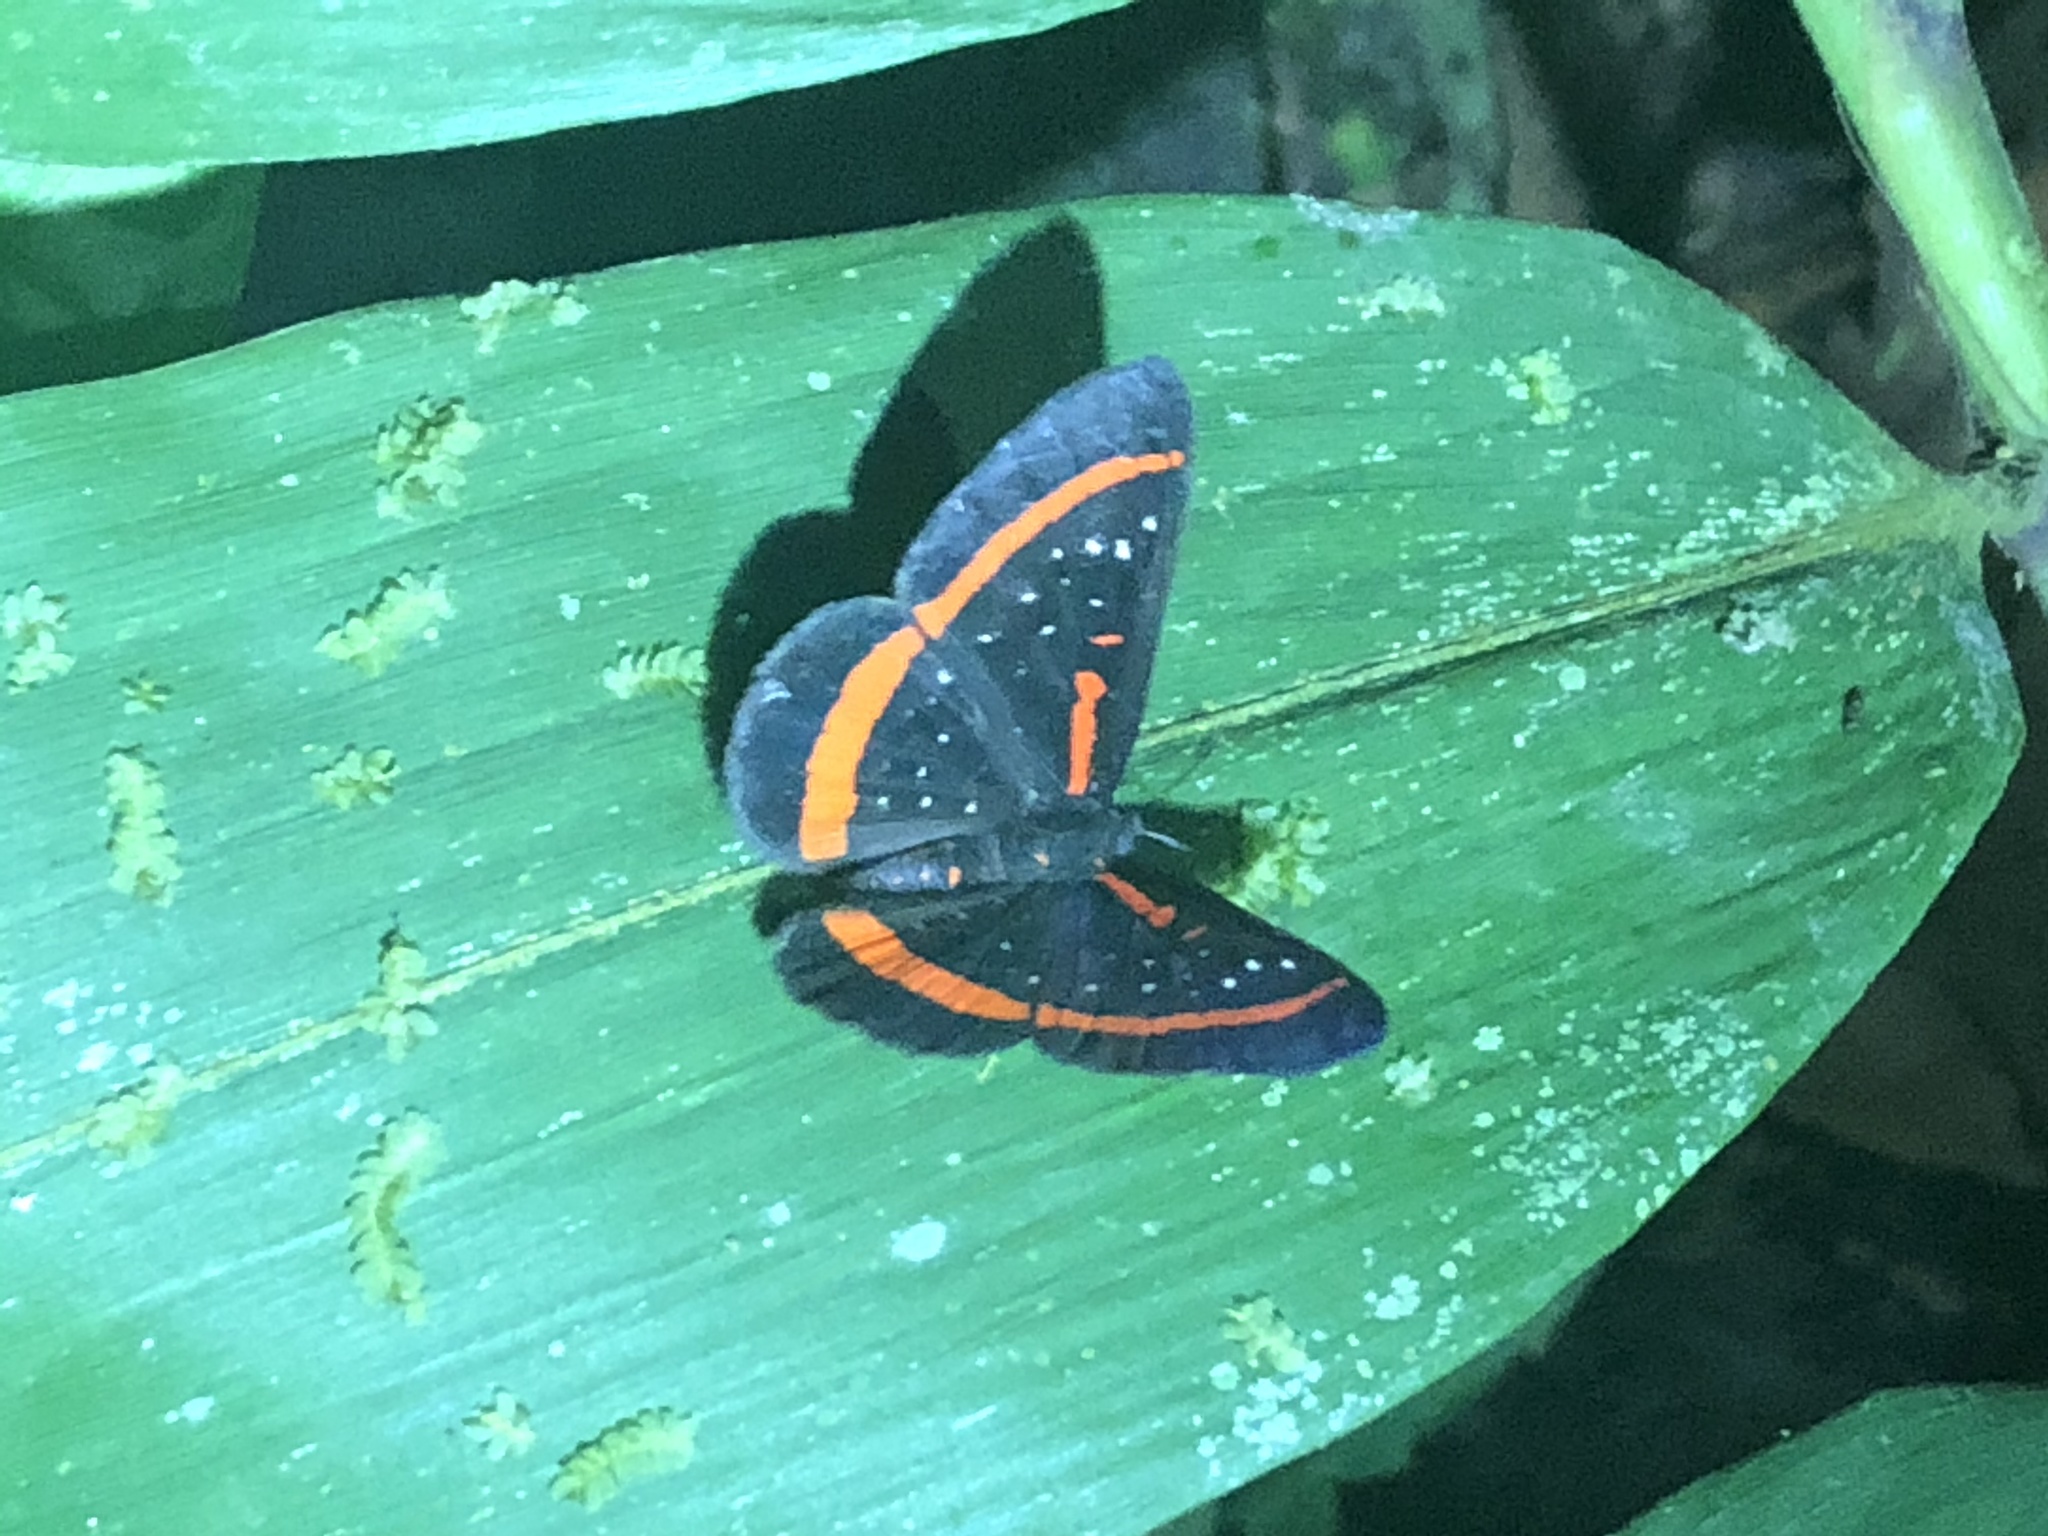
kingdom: Animalia
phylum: Arthropoda
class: Insecta
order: Lepidoptera
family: Riodinidae
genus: Amarynthis
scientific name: Amarynthis meneria
